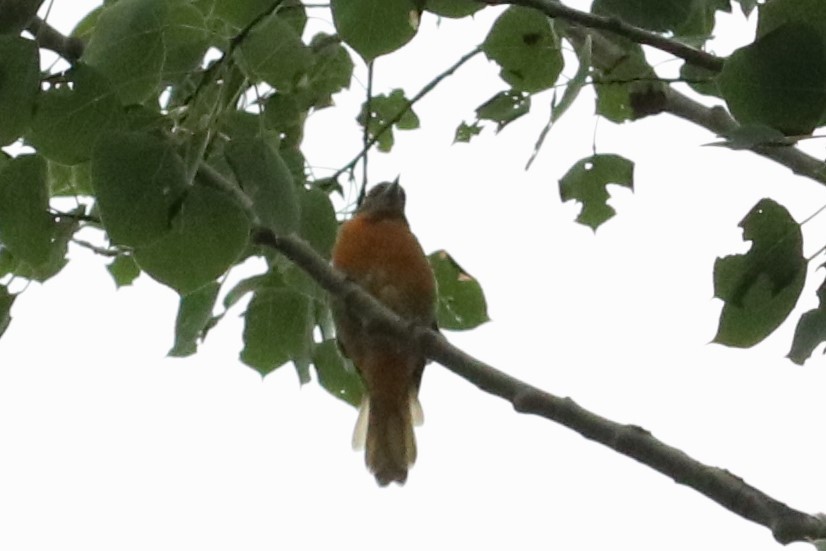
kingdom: Animalia
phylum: Chordata
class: Aves
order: Passeriformes
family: Icteridae
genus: Icterus
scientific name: Icterus galbula
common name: Baltimore oriole
